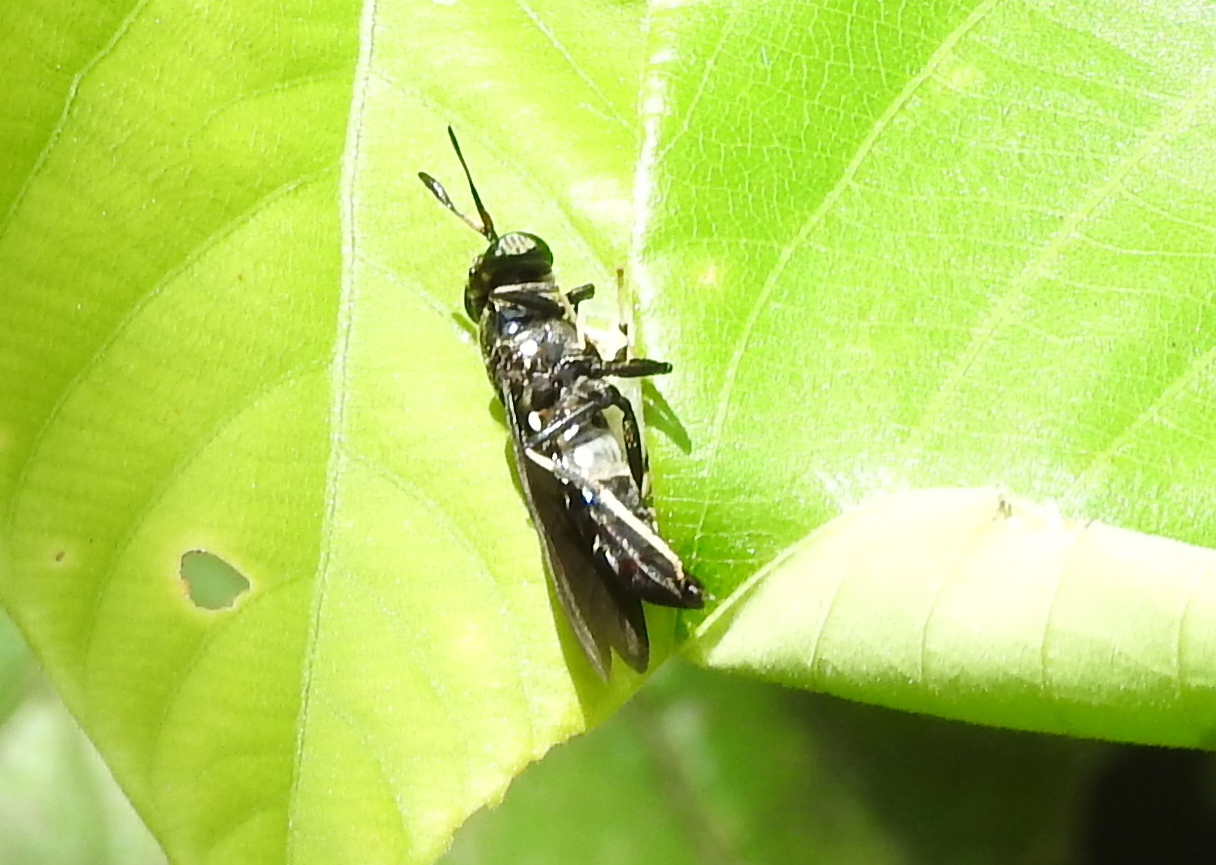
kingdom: Animalia
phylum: Arthropoda
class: Insecta
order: Diptera
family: Stratiomyidae
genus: Hermetia
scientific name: Hermetia illucens
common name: Black soldier fly
